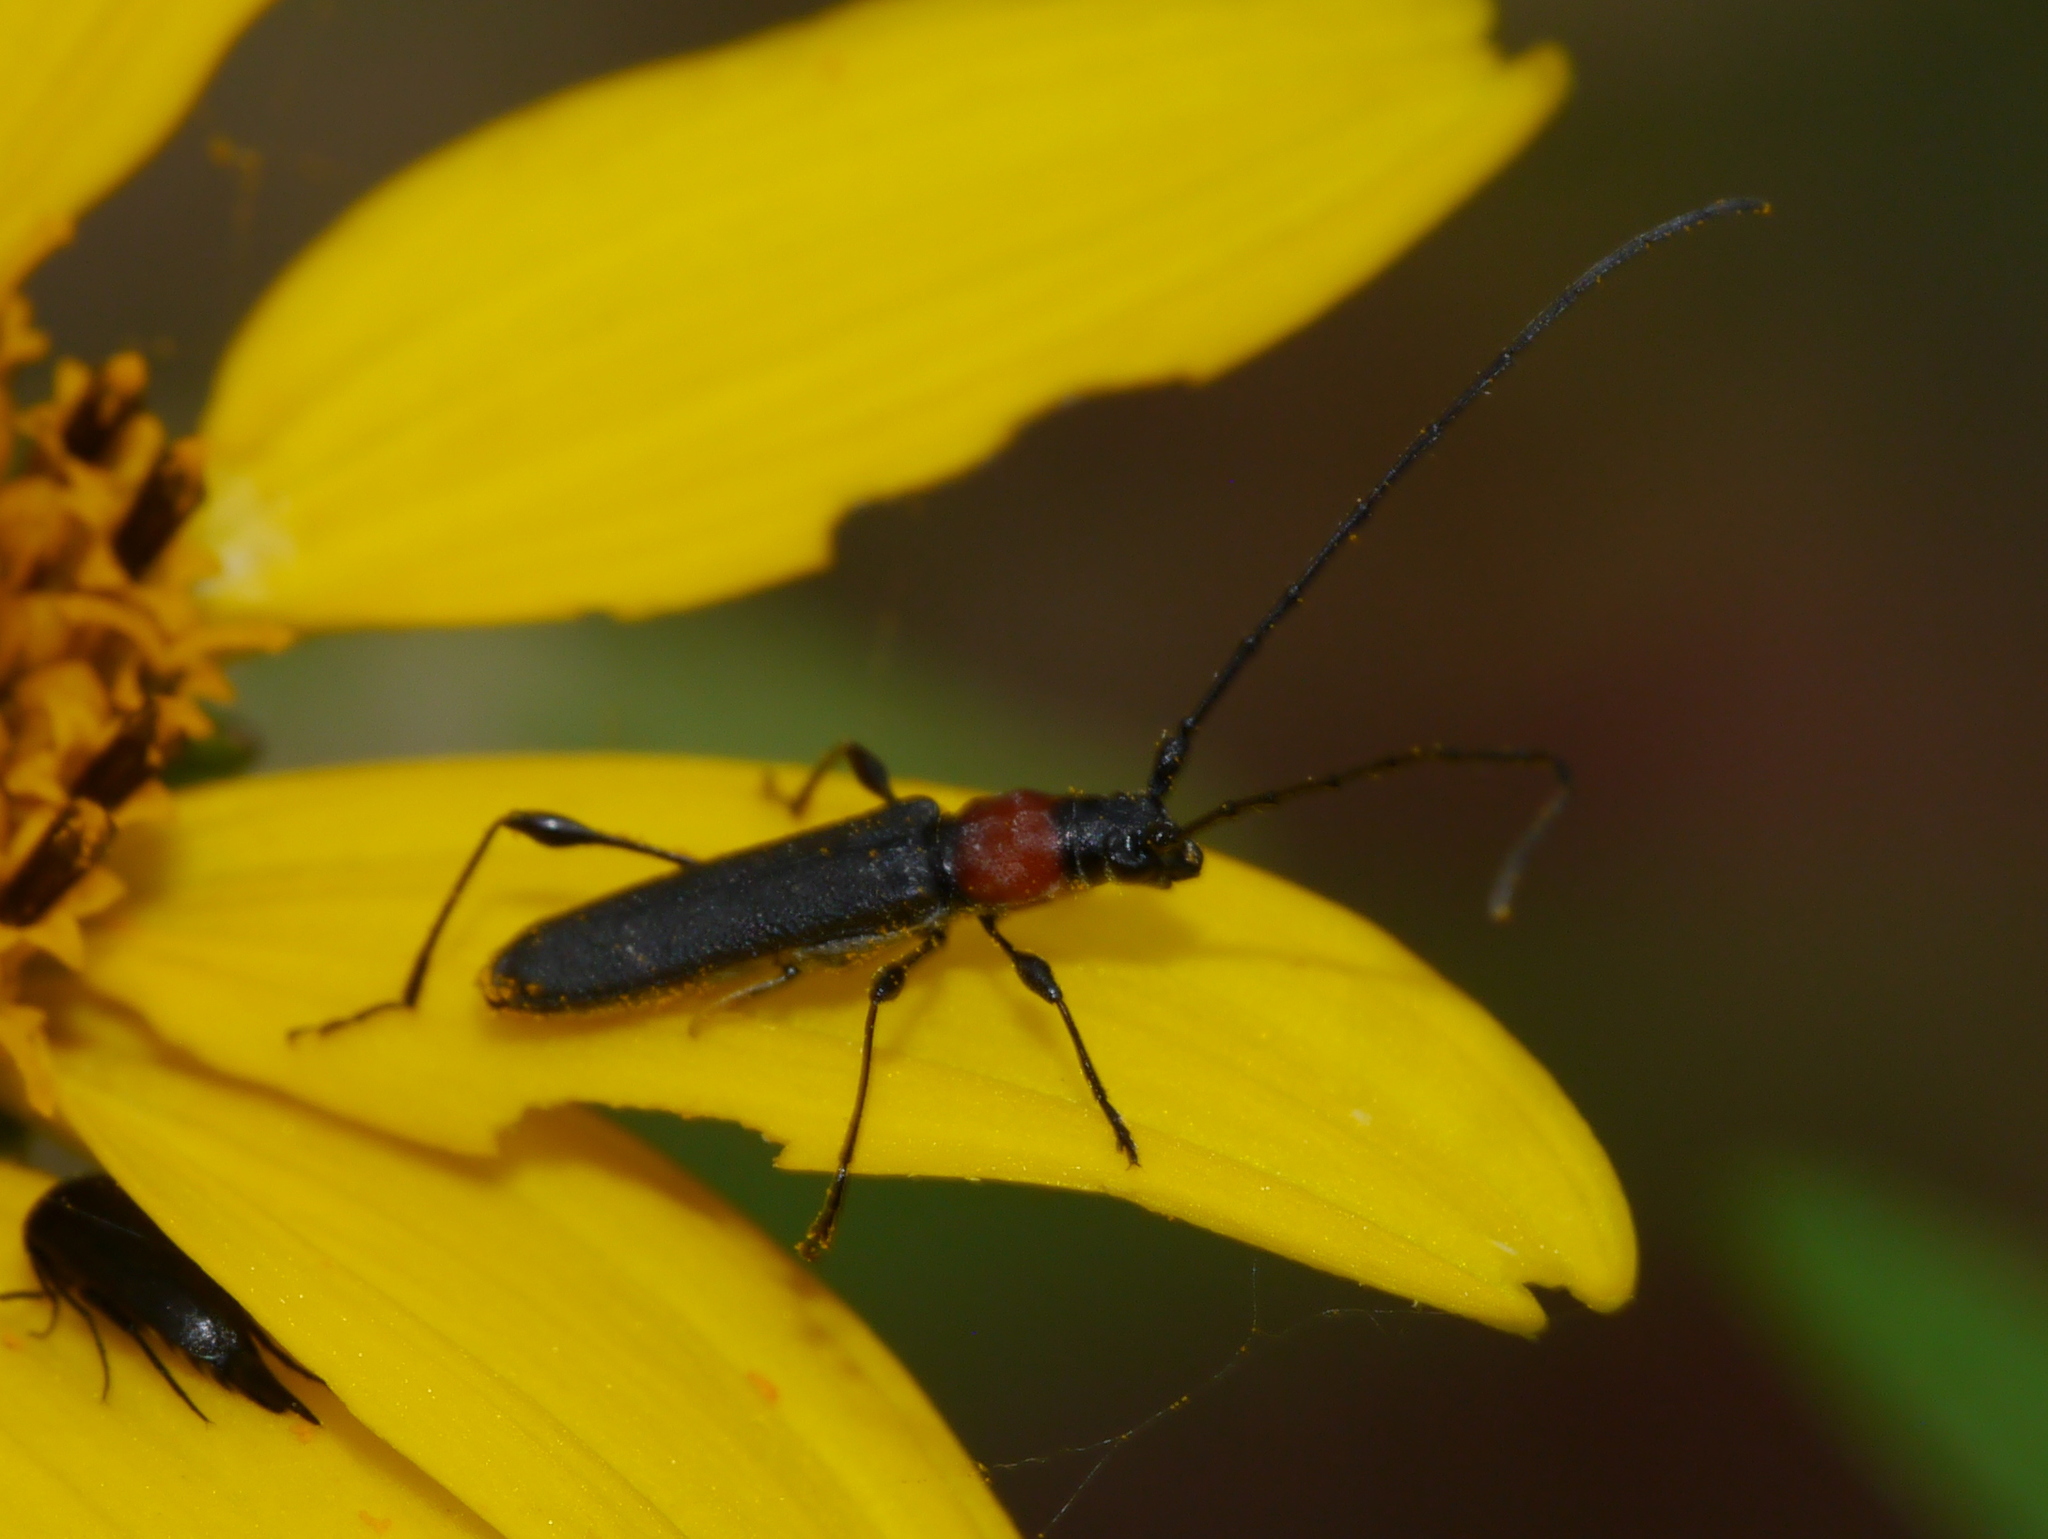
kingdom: Animalia
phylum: Arthropoda
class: Insecta
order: Coleoptera
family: Cerambycidae
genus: Rhopalophora
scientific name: Rhopalophora meeskei
